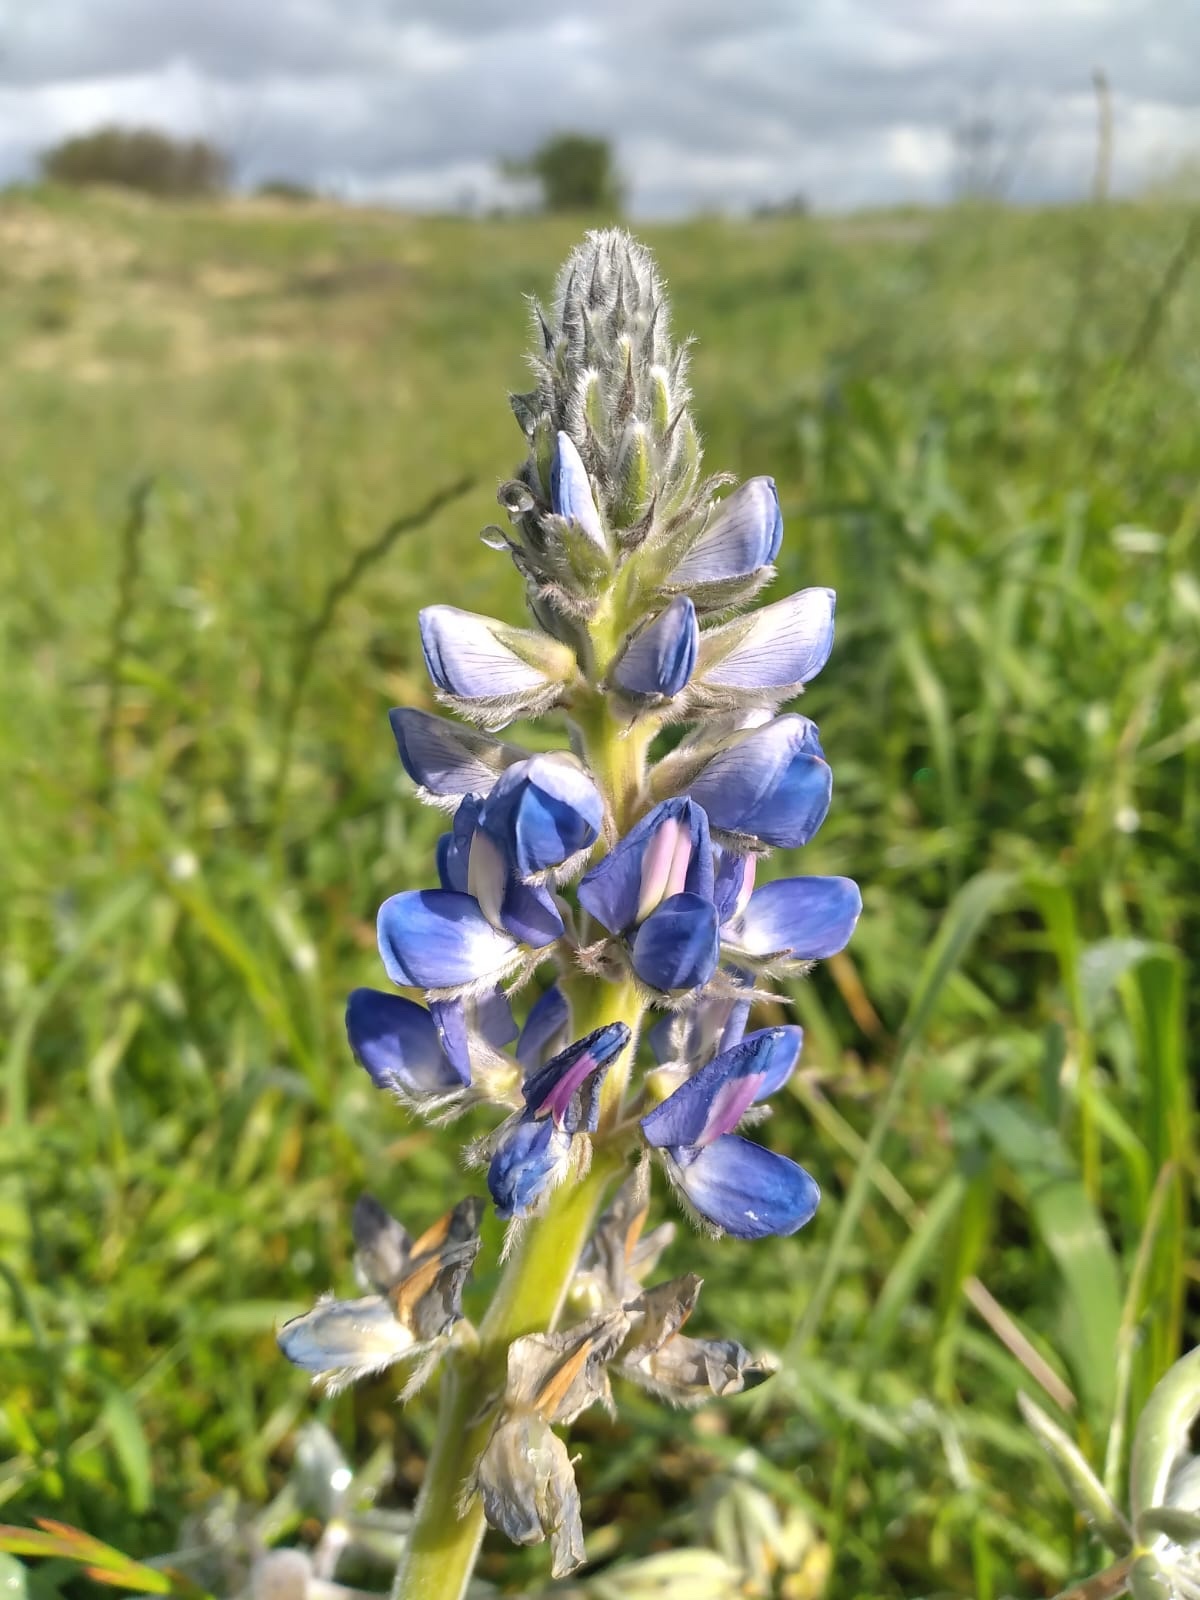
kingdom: Plantae
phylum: Tracheophyta
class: Magnoliopsida
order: Fabales
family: Fabaceae
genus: Lupinus
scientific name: Lupinus cosentinii
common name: Hairy blue lupin
